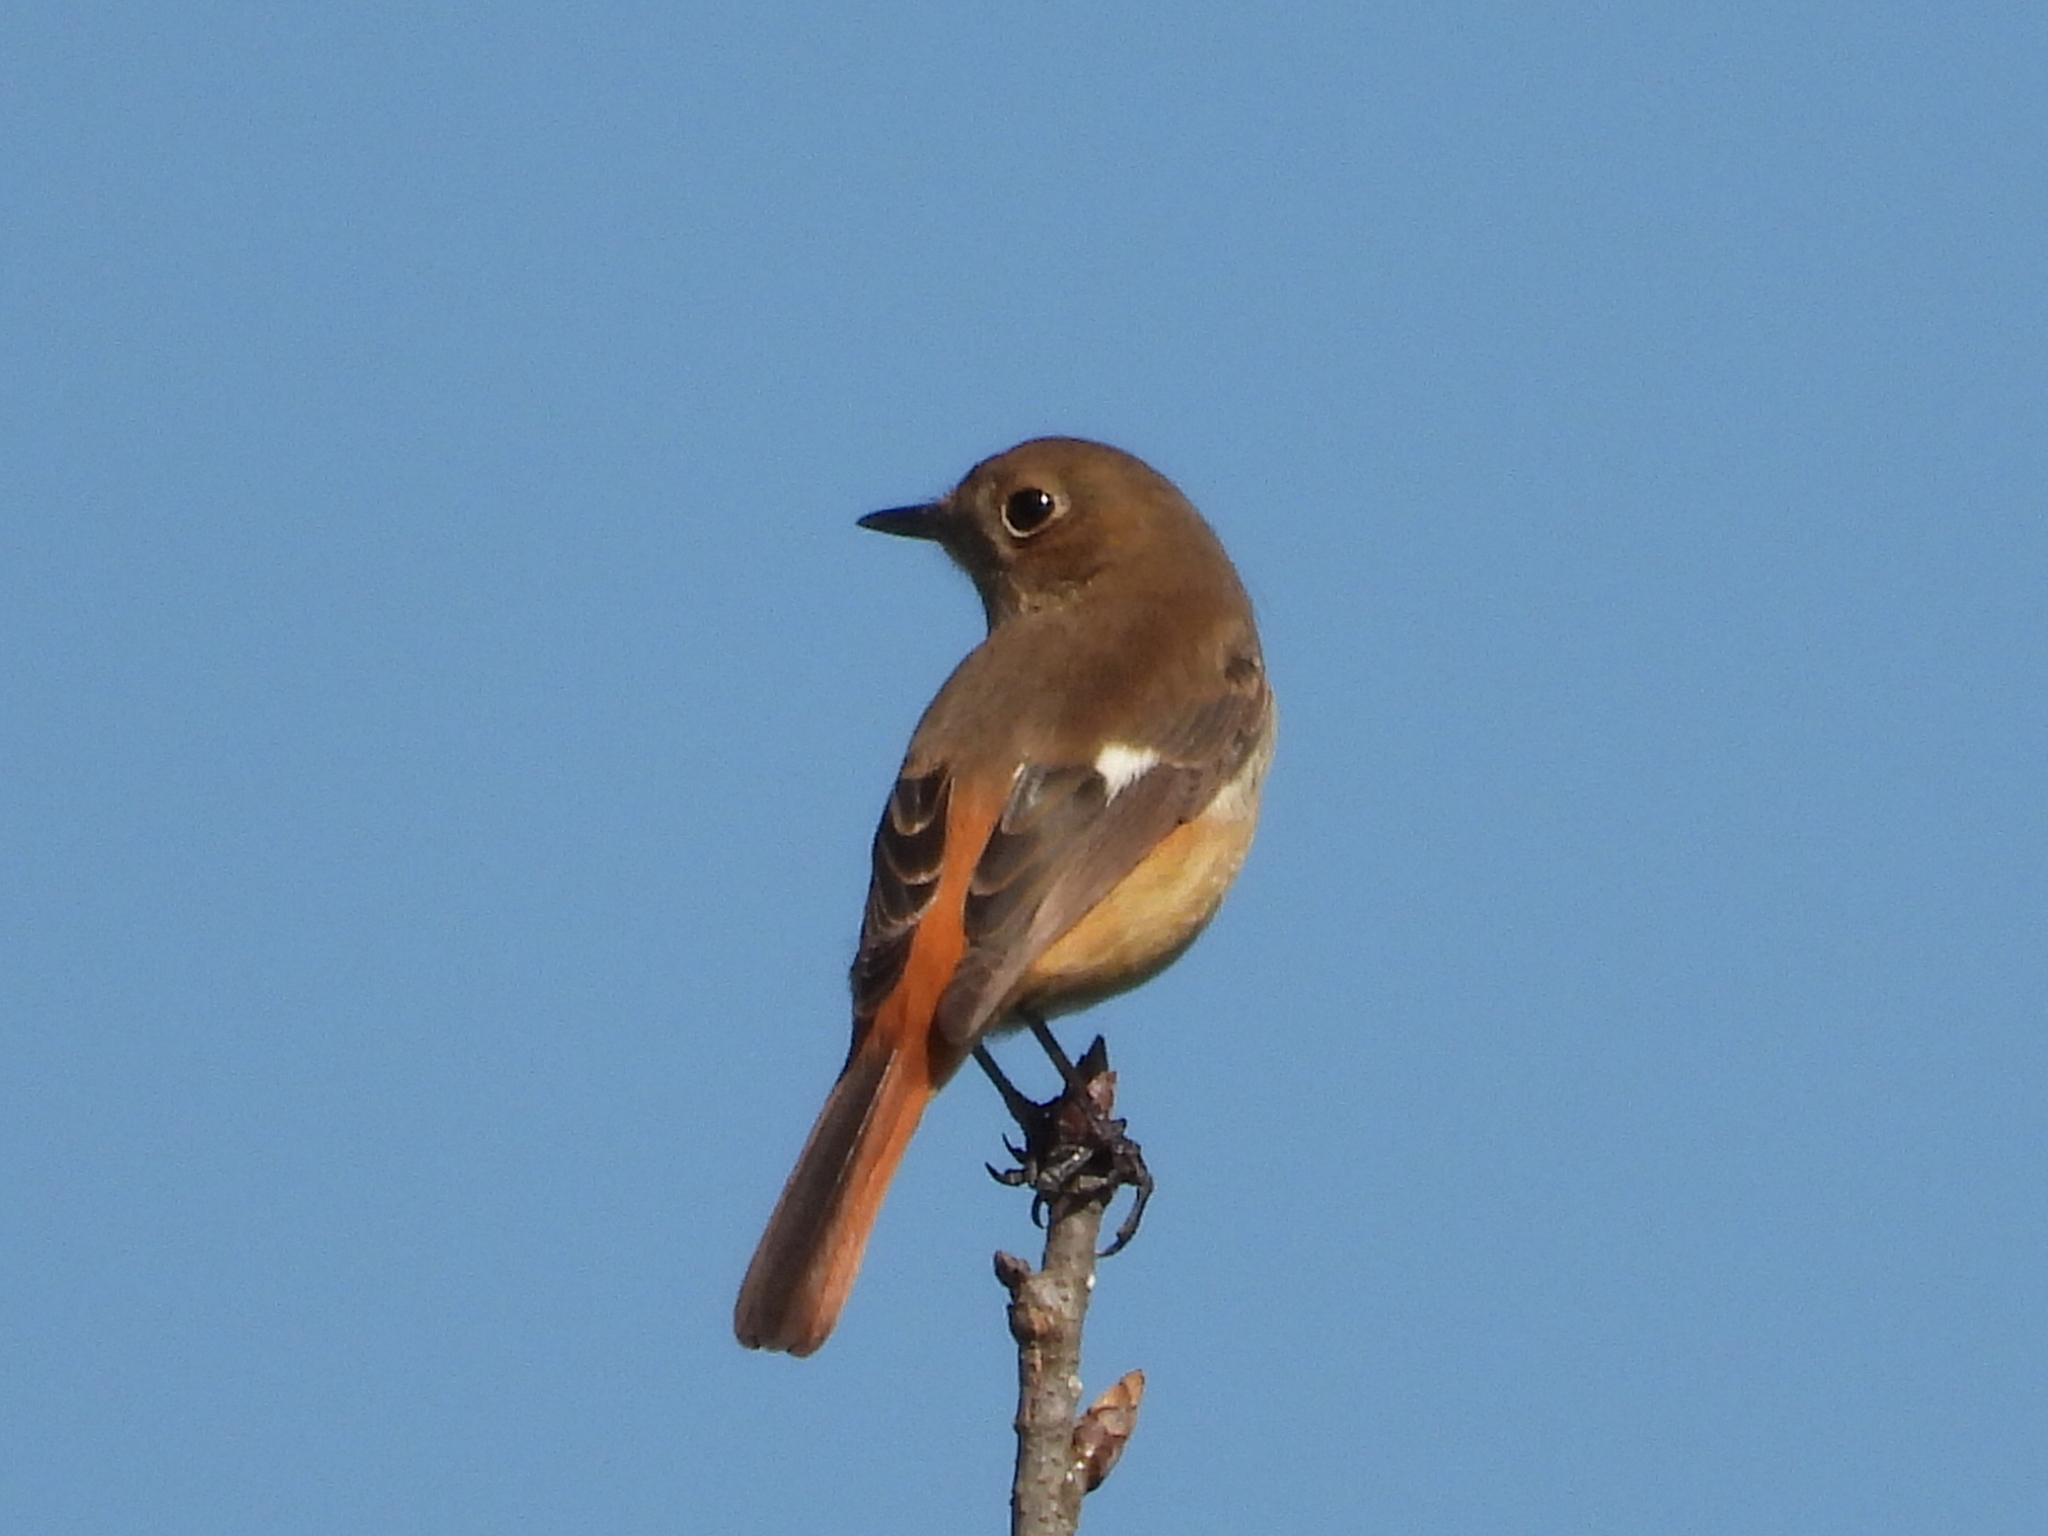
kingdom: Animalia
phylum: Chordata
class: Aves
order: Passeriformes
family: Muscicapidae
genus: Phoenicurus
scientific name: Phoenicurus auroreus
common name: Daurian redstart
